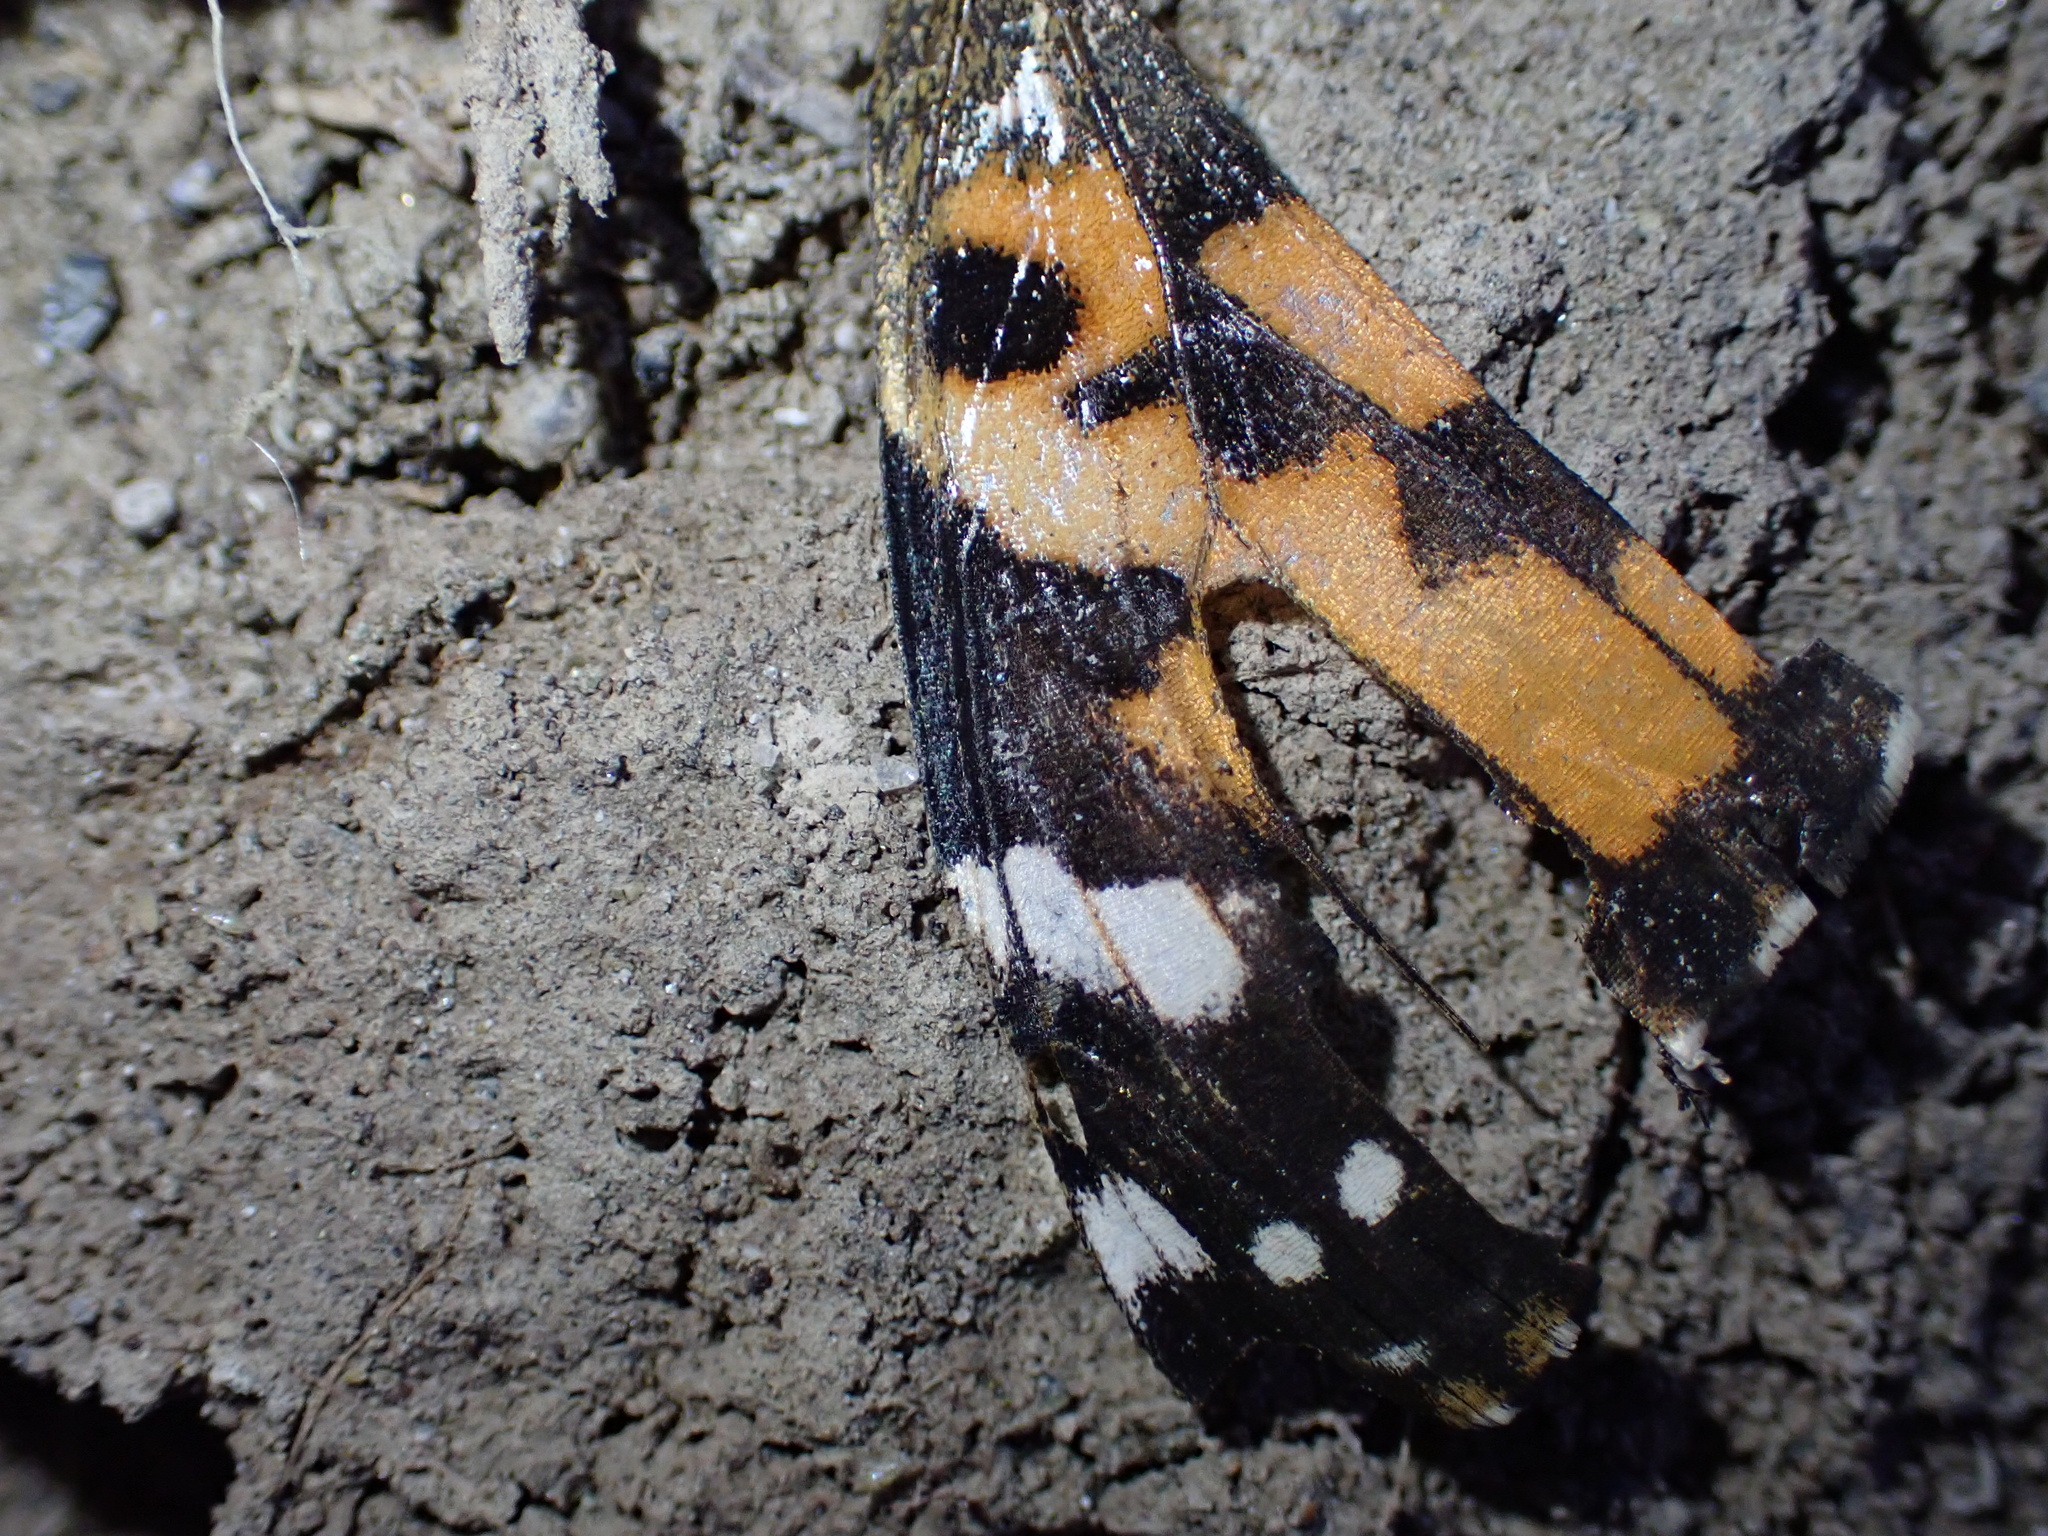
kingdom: Animalia
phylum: Arthropoda
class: Insecta
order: Lepidoptera
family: Nymphalidae
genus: Vanessa
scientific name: Vanessa cardui
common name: Painted lady
